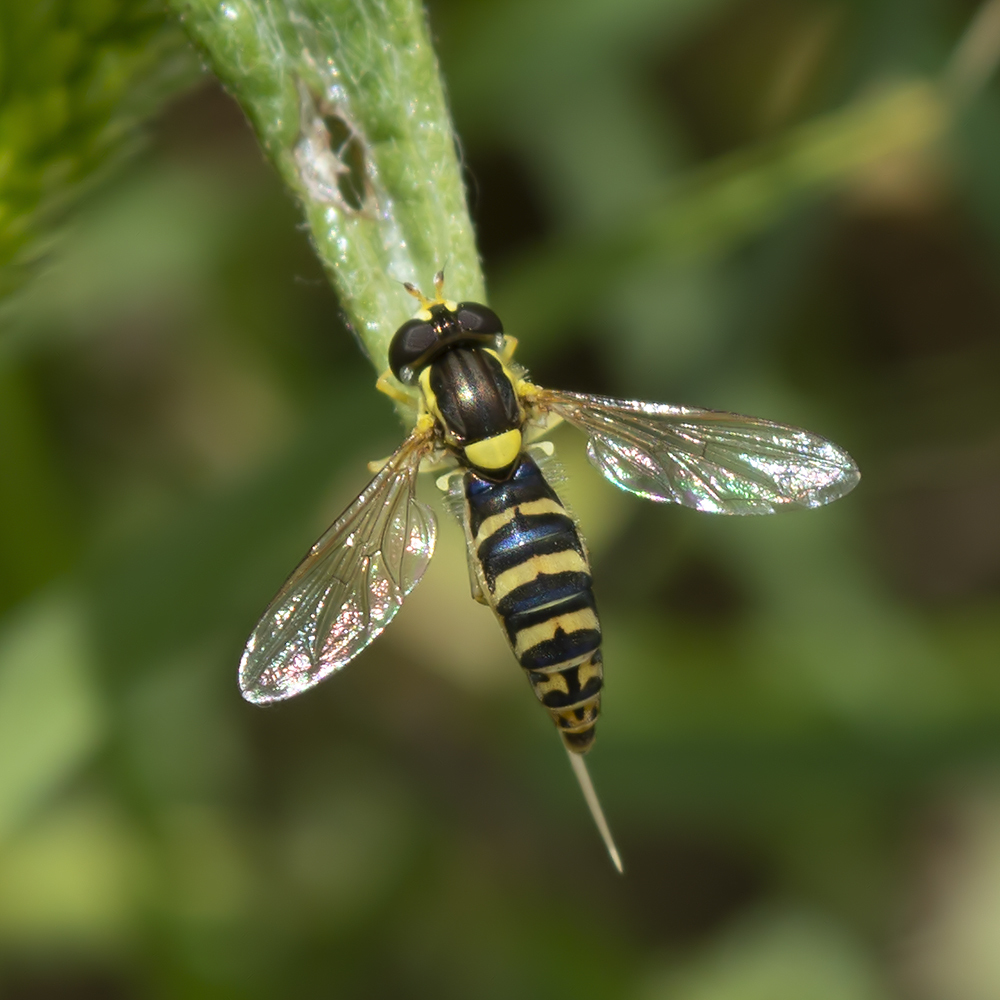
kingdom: Animalia
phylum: Arthropoda
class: Insecta
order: Diptera
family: Syrphidae
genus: Sphaerophoria
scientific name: Sphaerophoria scripta
